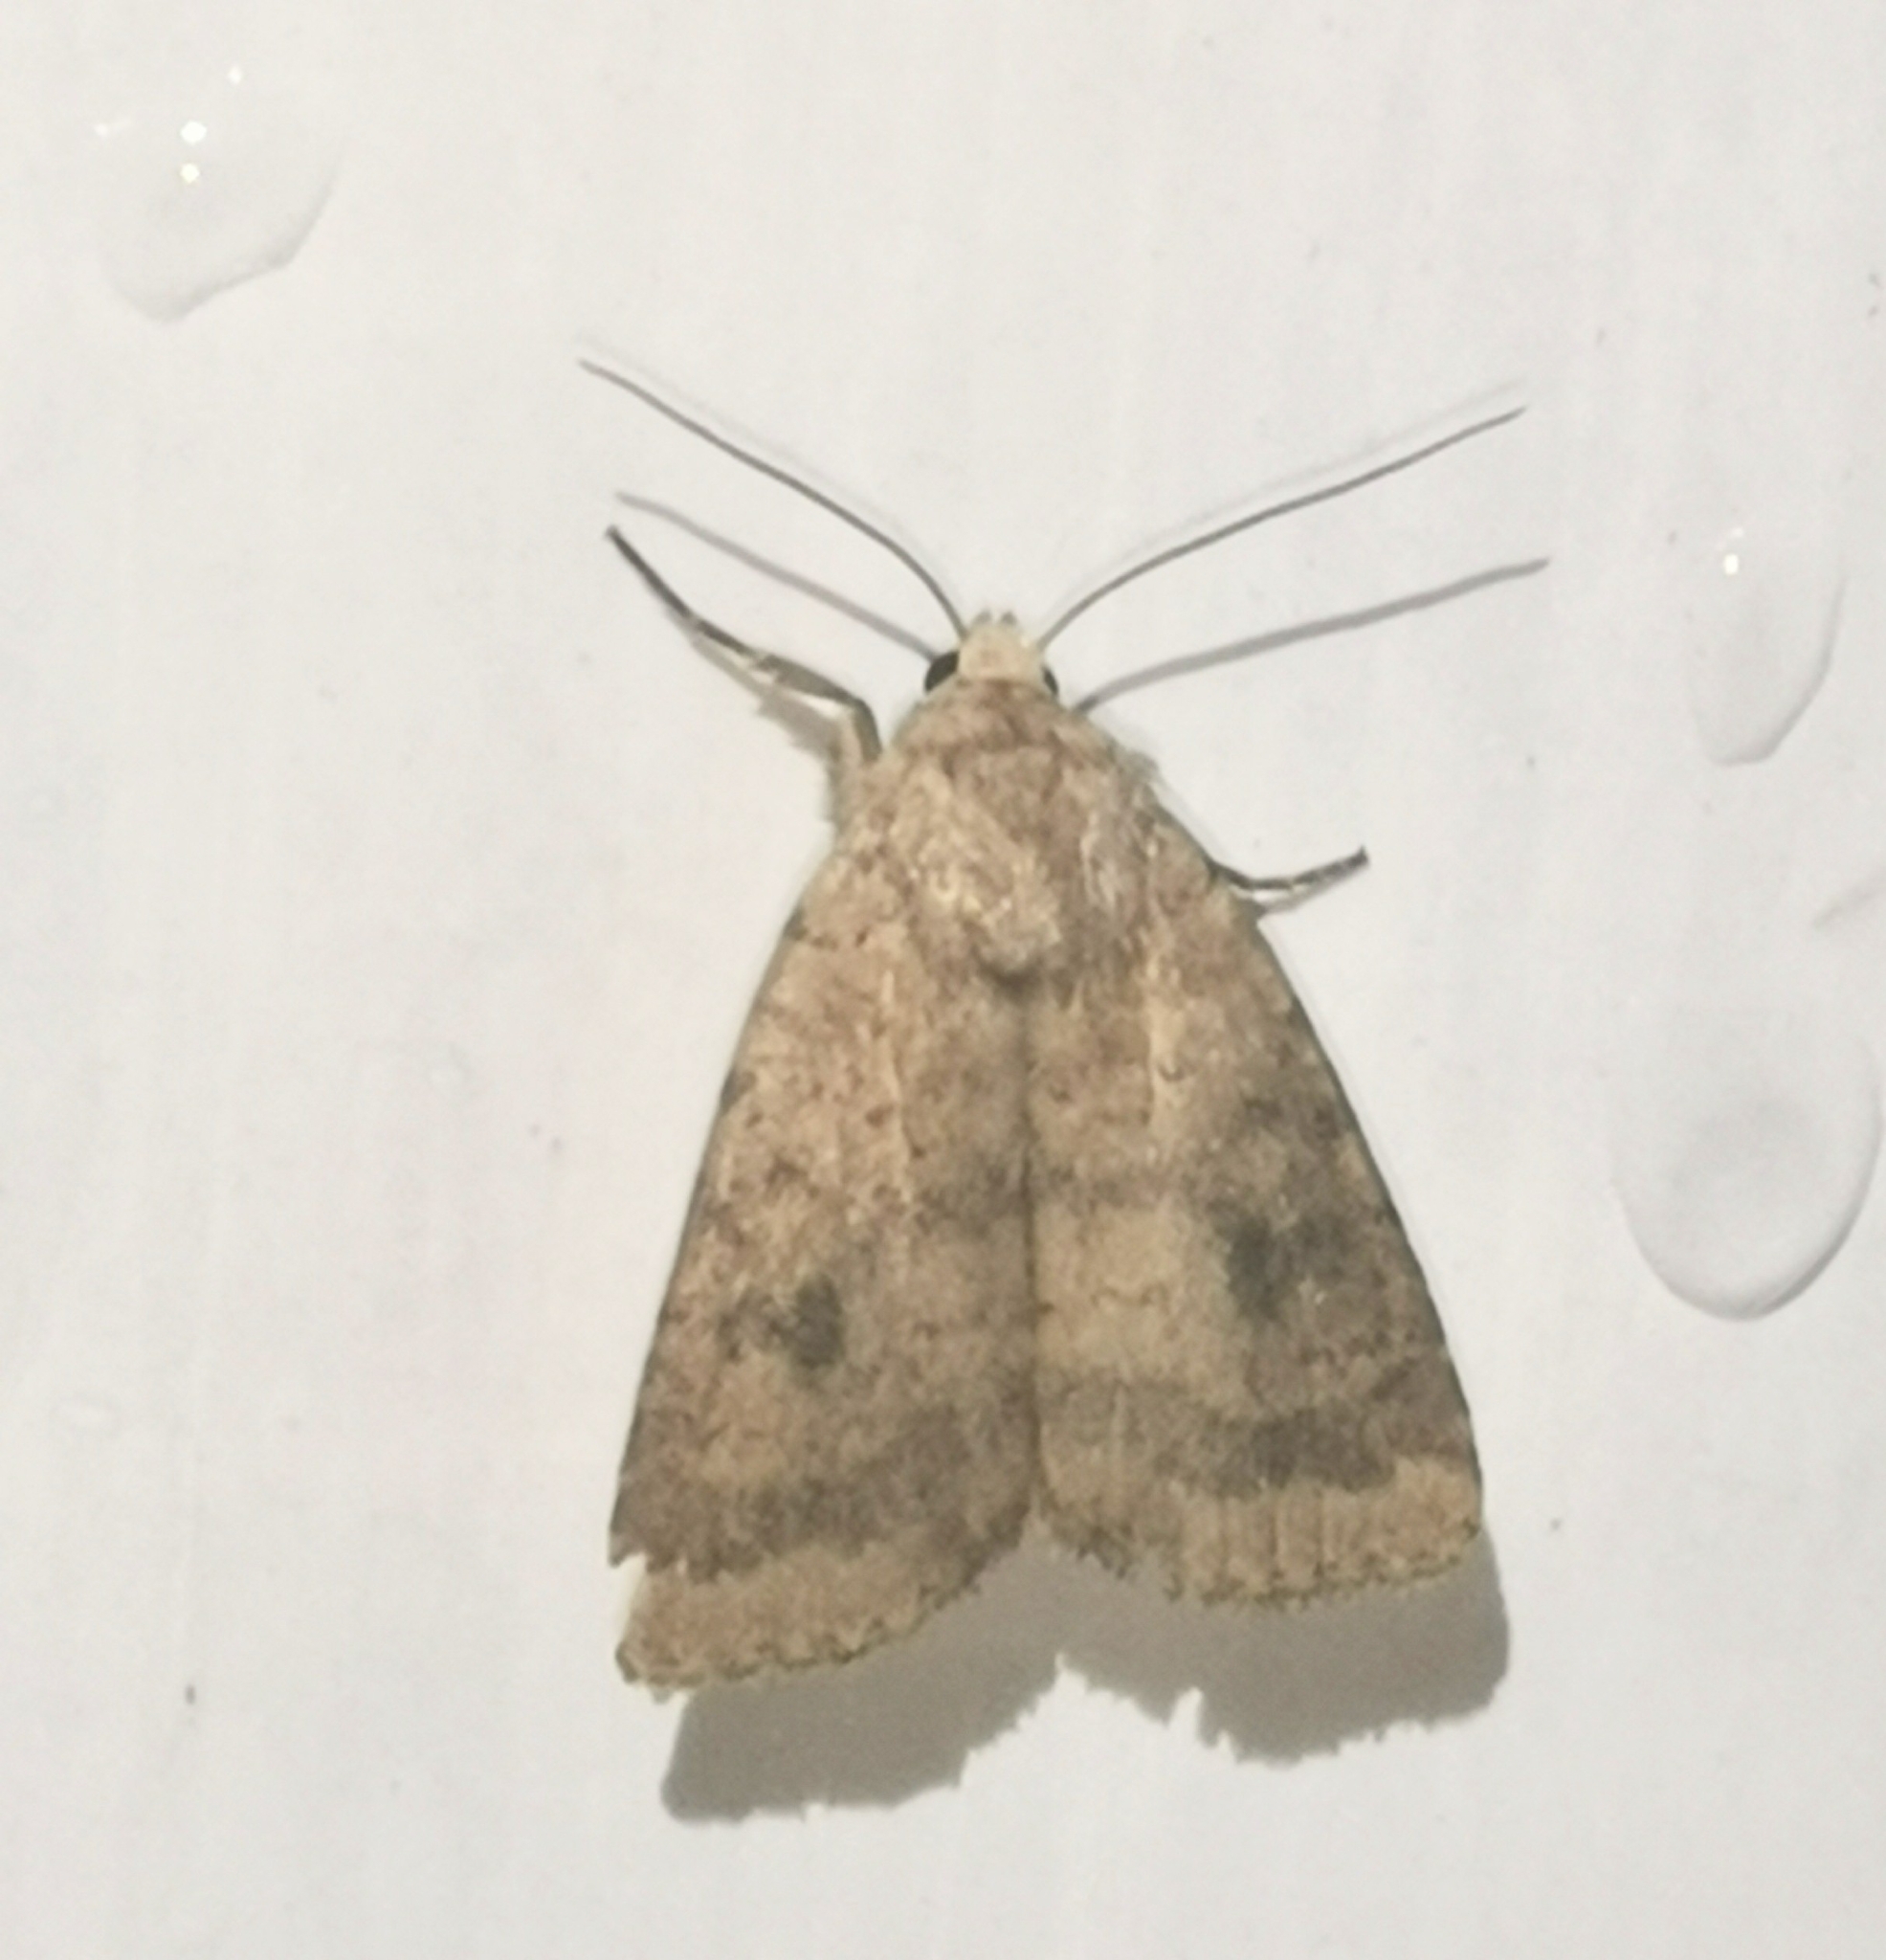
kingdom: Animalia
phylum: Arthropoda
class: Insecta
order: Lepidoptera
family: Noctuidae
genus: Caradrina
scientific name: Caradrina morpheus
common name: Mottled rustic
